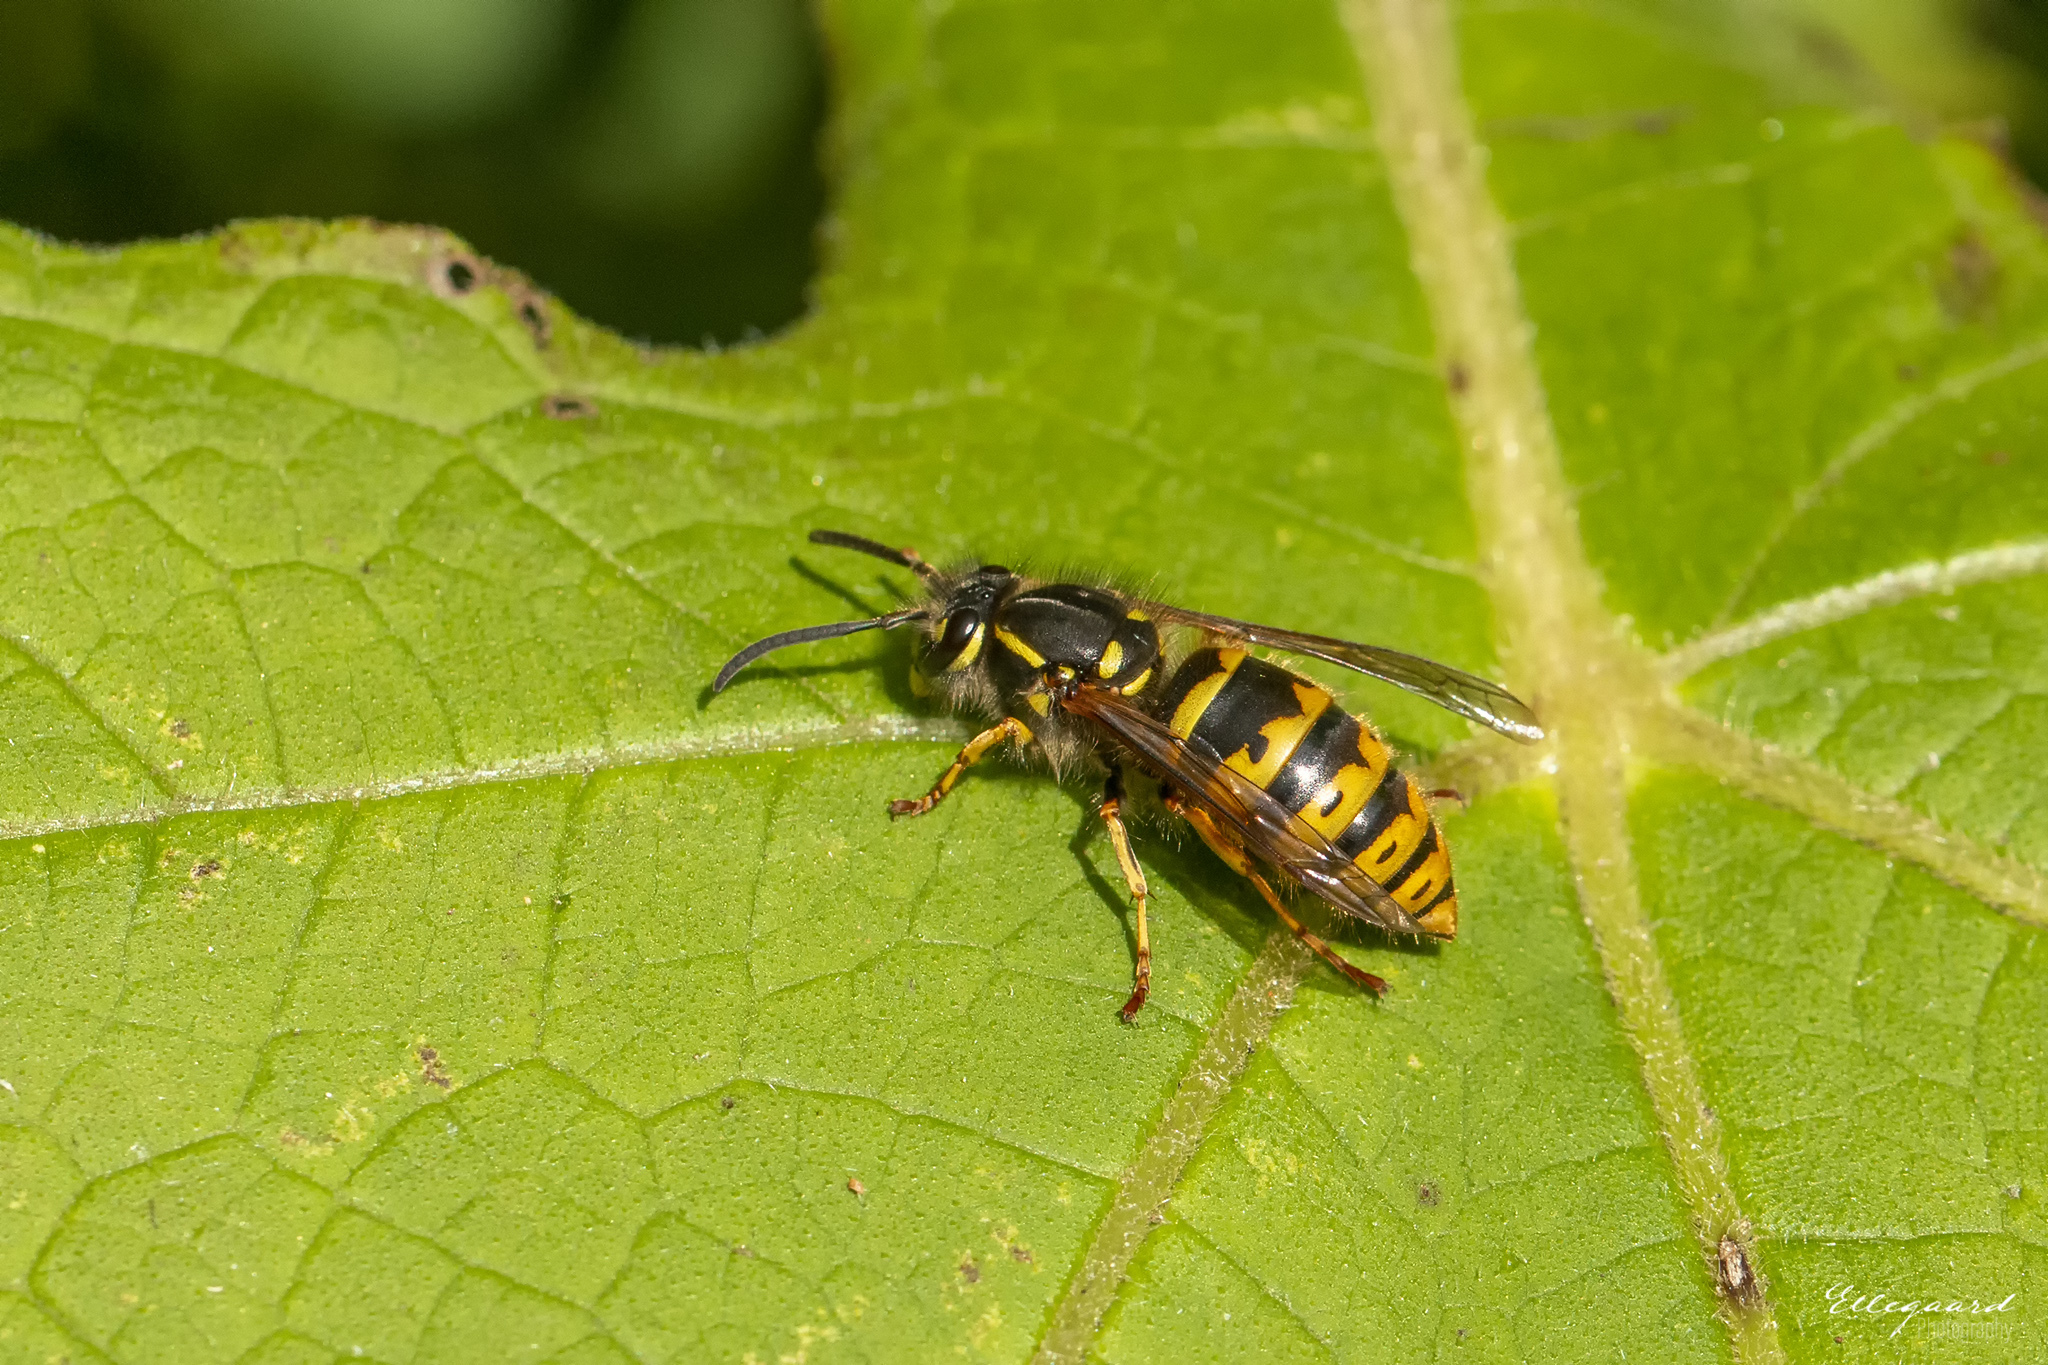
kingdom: Animalia
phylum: Arthropoda
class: Insecta
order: Hymenoptera
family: Vespidae
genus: Vespula
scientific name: Vespula vulgaris
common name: Common wasp
